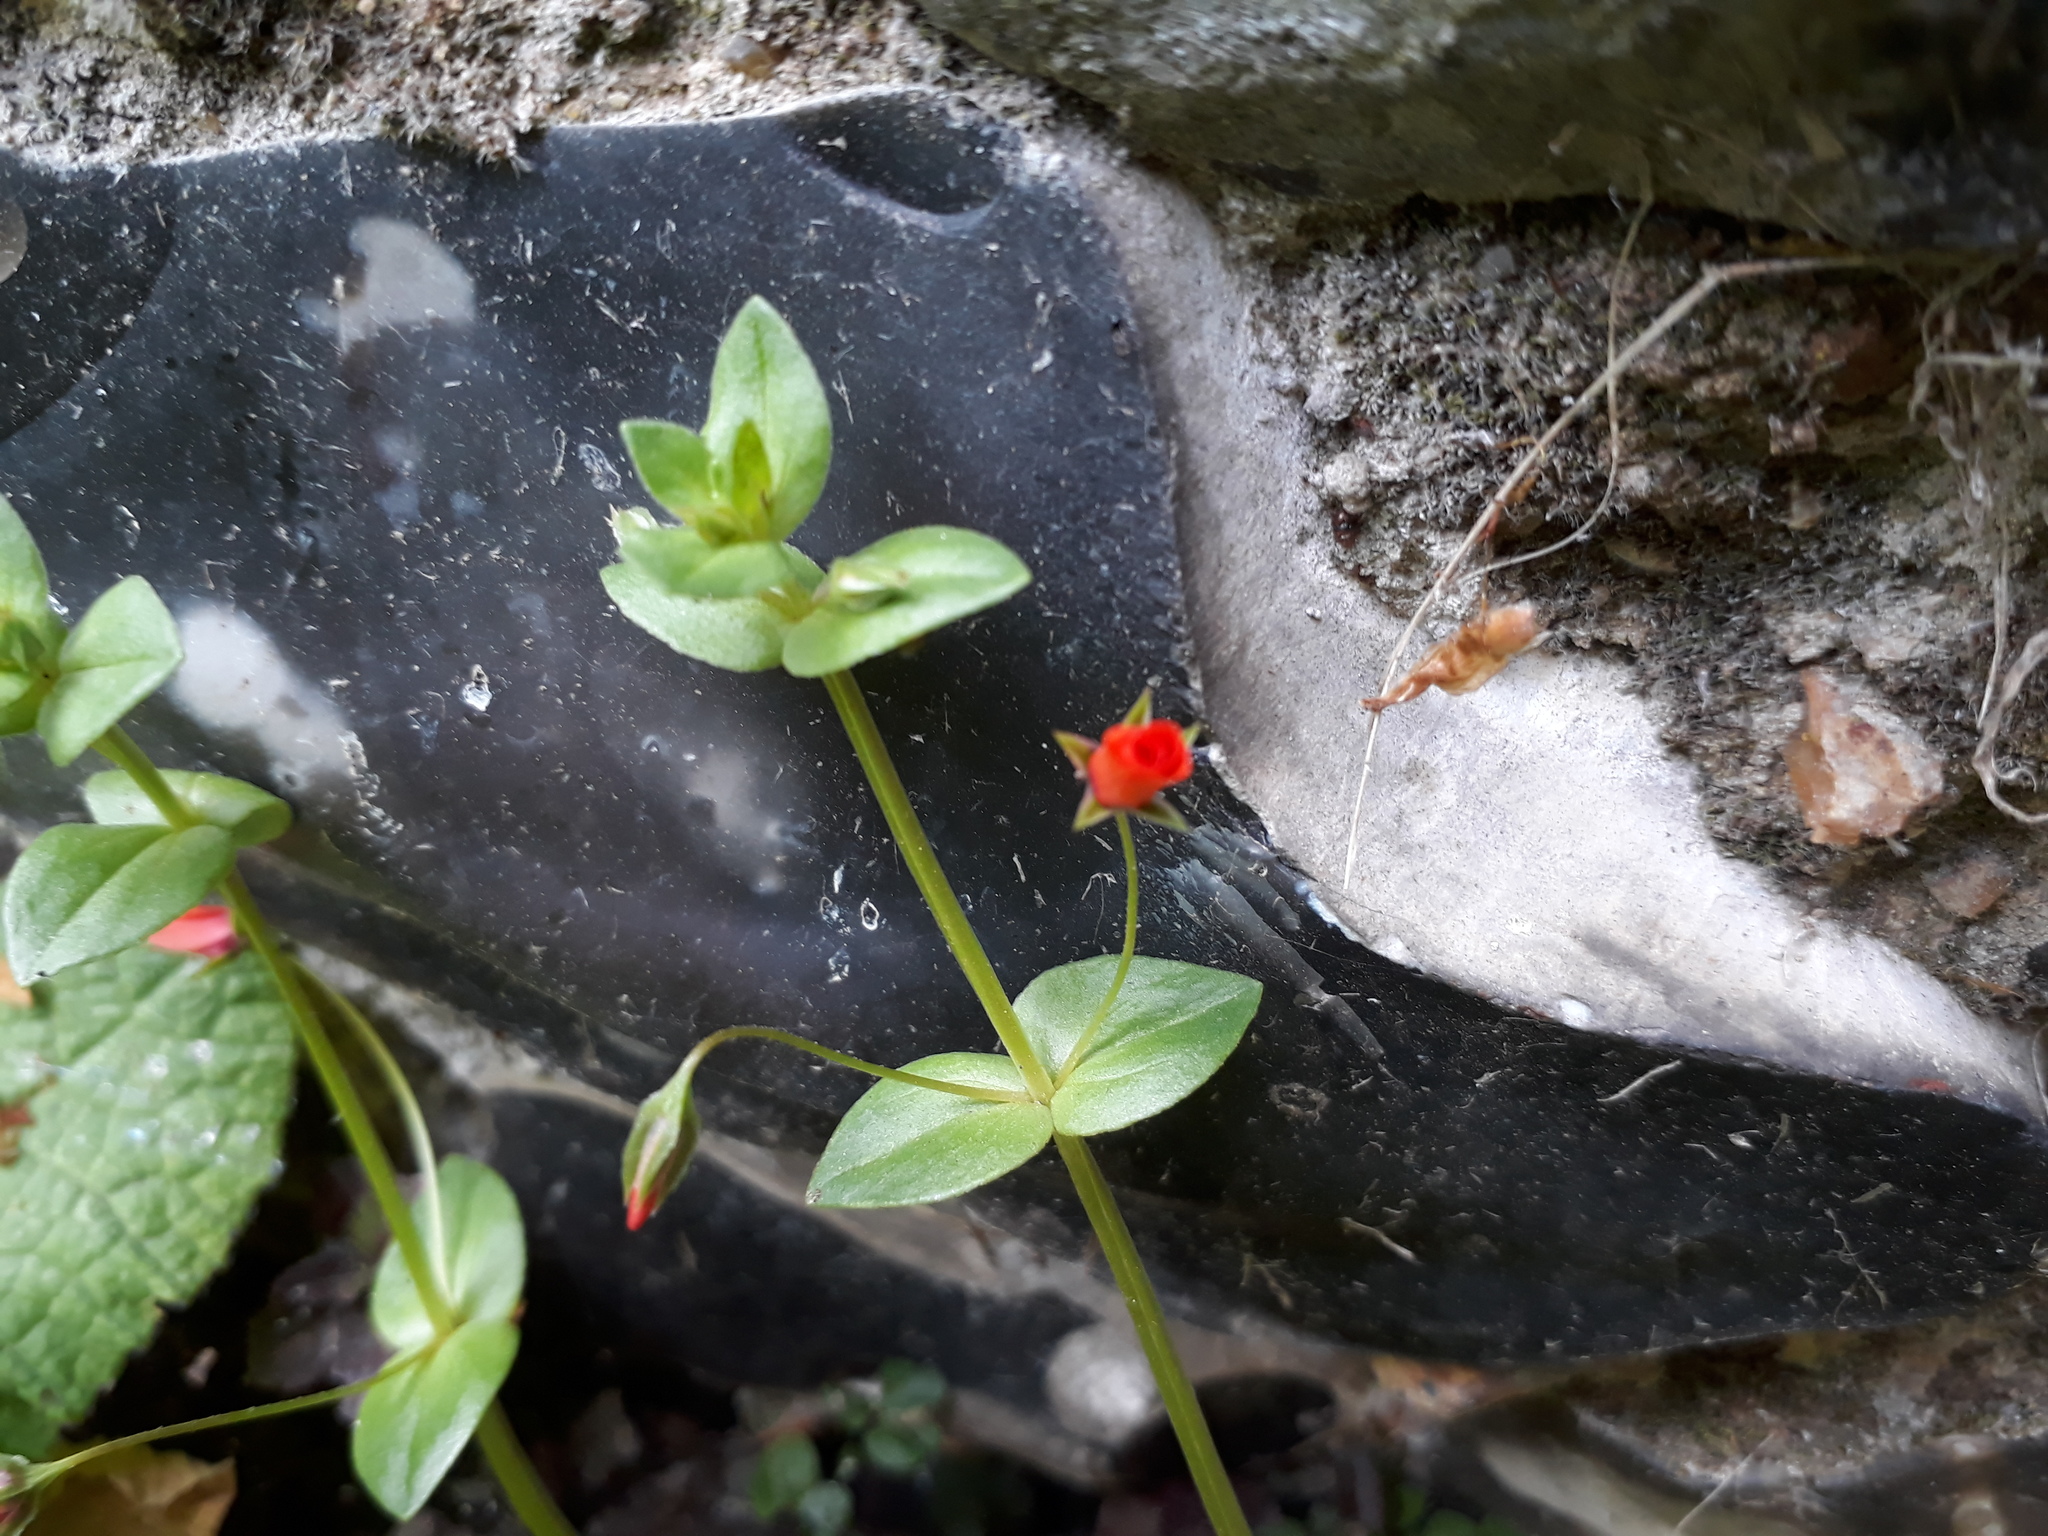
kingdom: Plantae
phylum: Tracheophyta
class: Magnoliopsida
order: Ericales
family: Primulaceae
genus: Lysimachia
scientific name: Lysimachia arvensis
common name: Scarlet pimpernel
